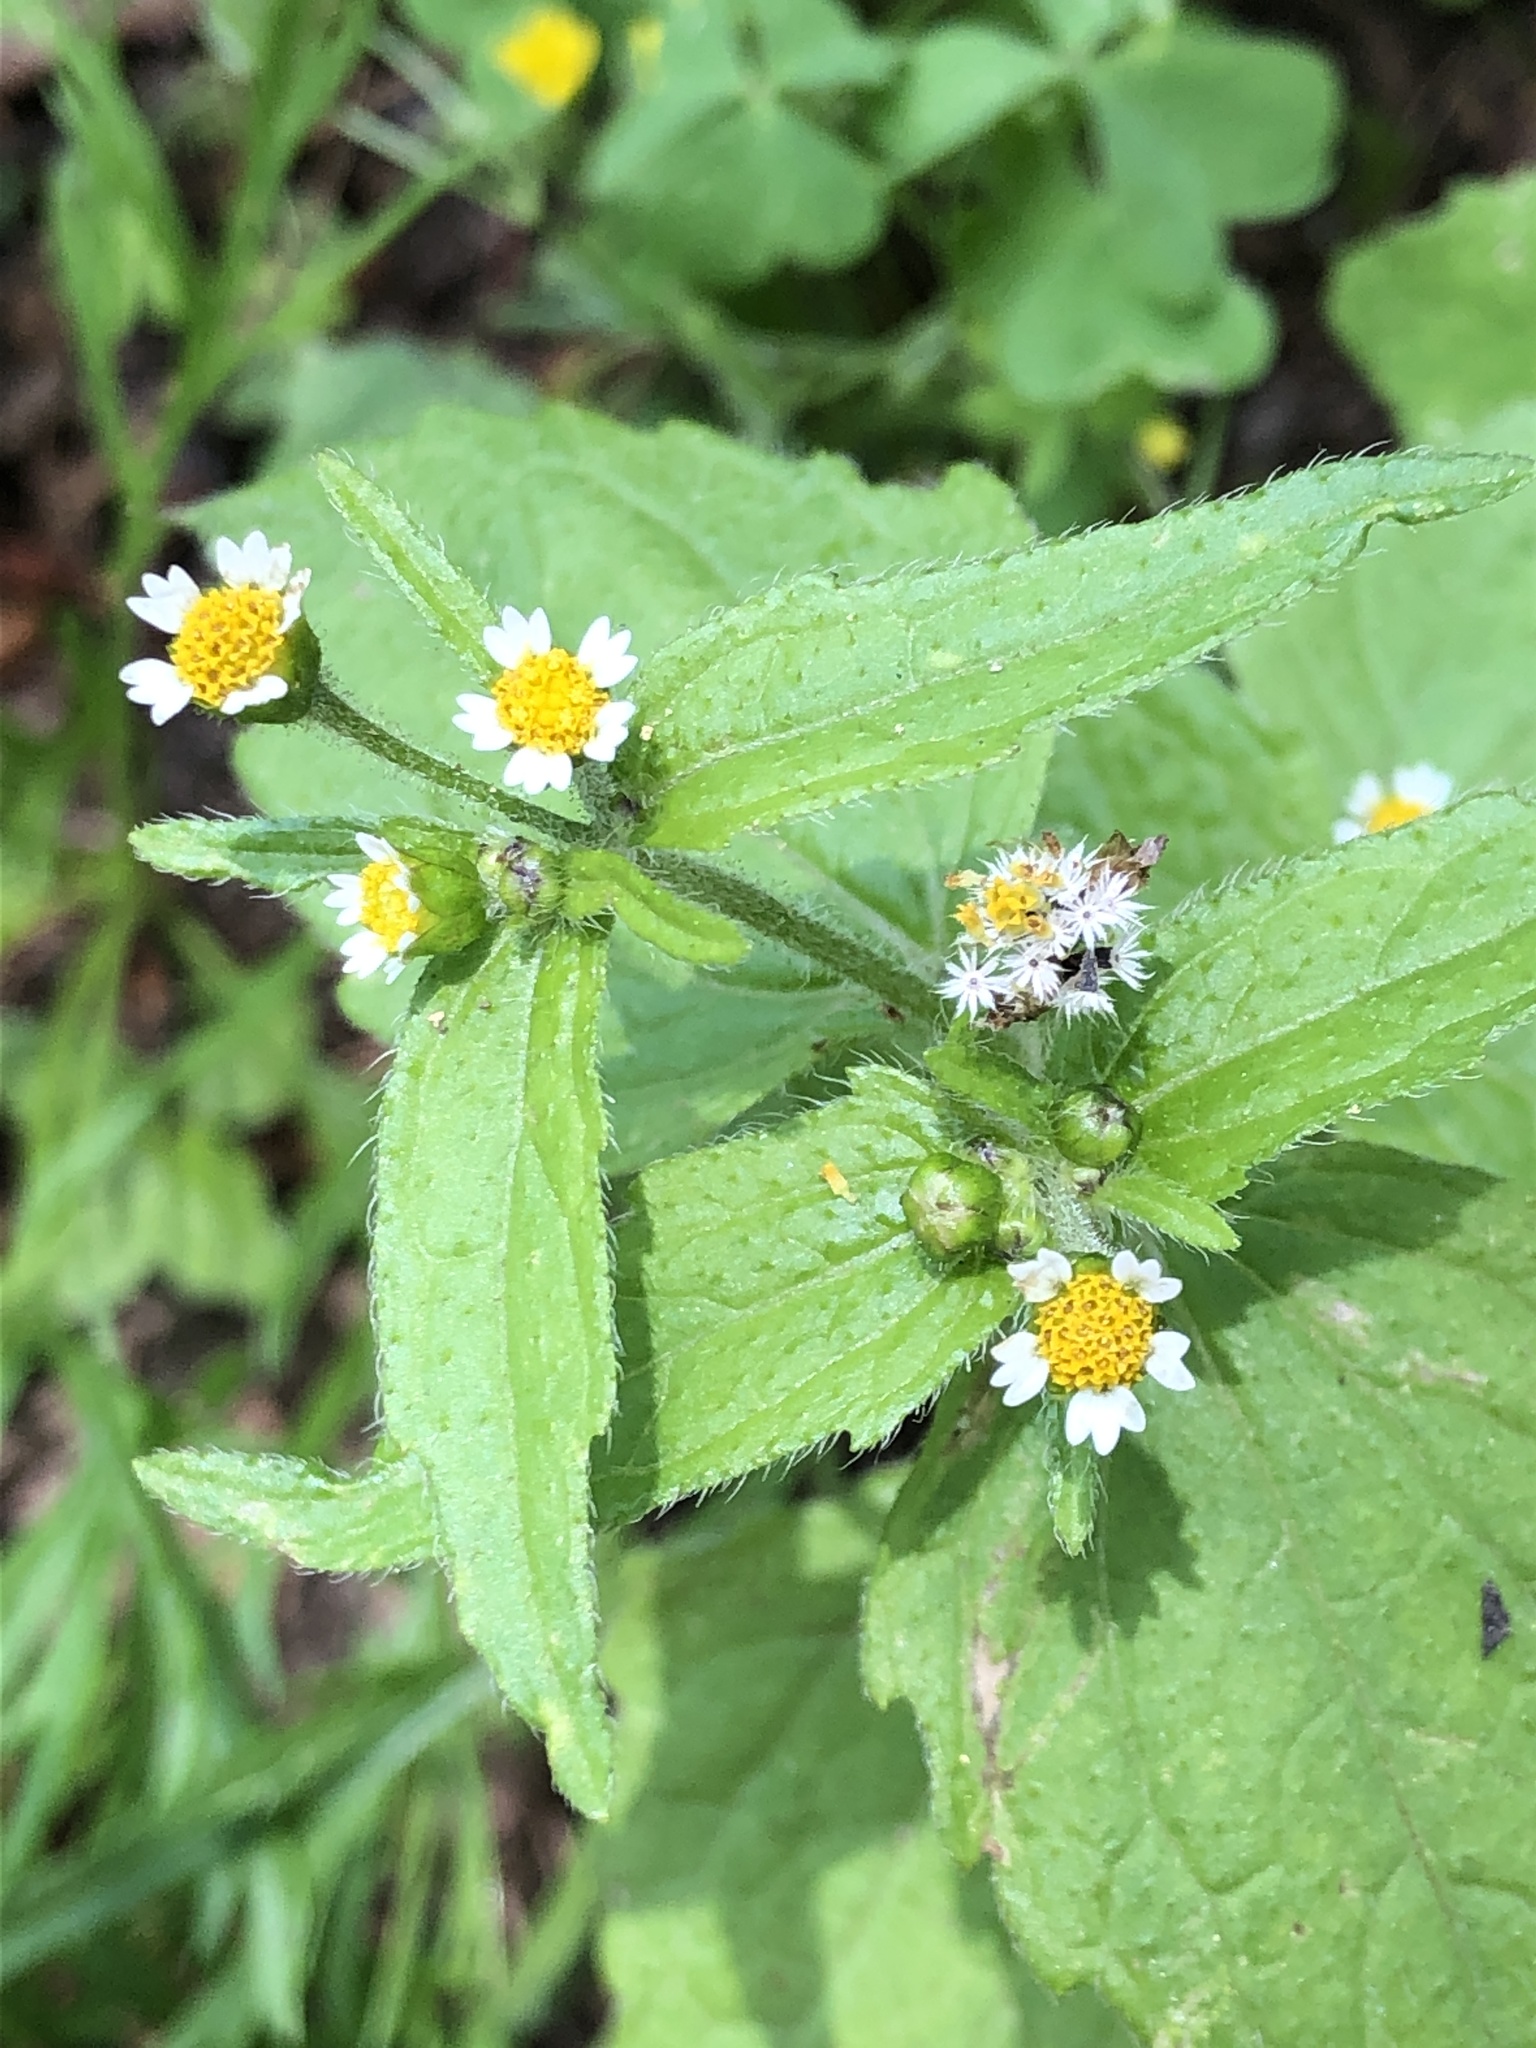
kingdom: Plantae
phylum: Tracheophyta
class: Magnoliopsida
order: Asterales
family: Asteraceae
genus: Galinsoga
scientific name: Galinsoga quadriradiata
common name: Shaggy soldier
